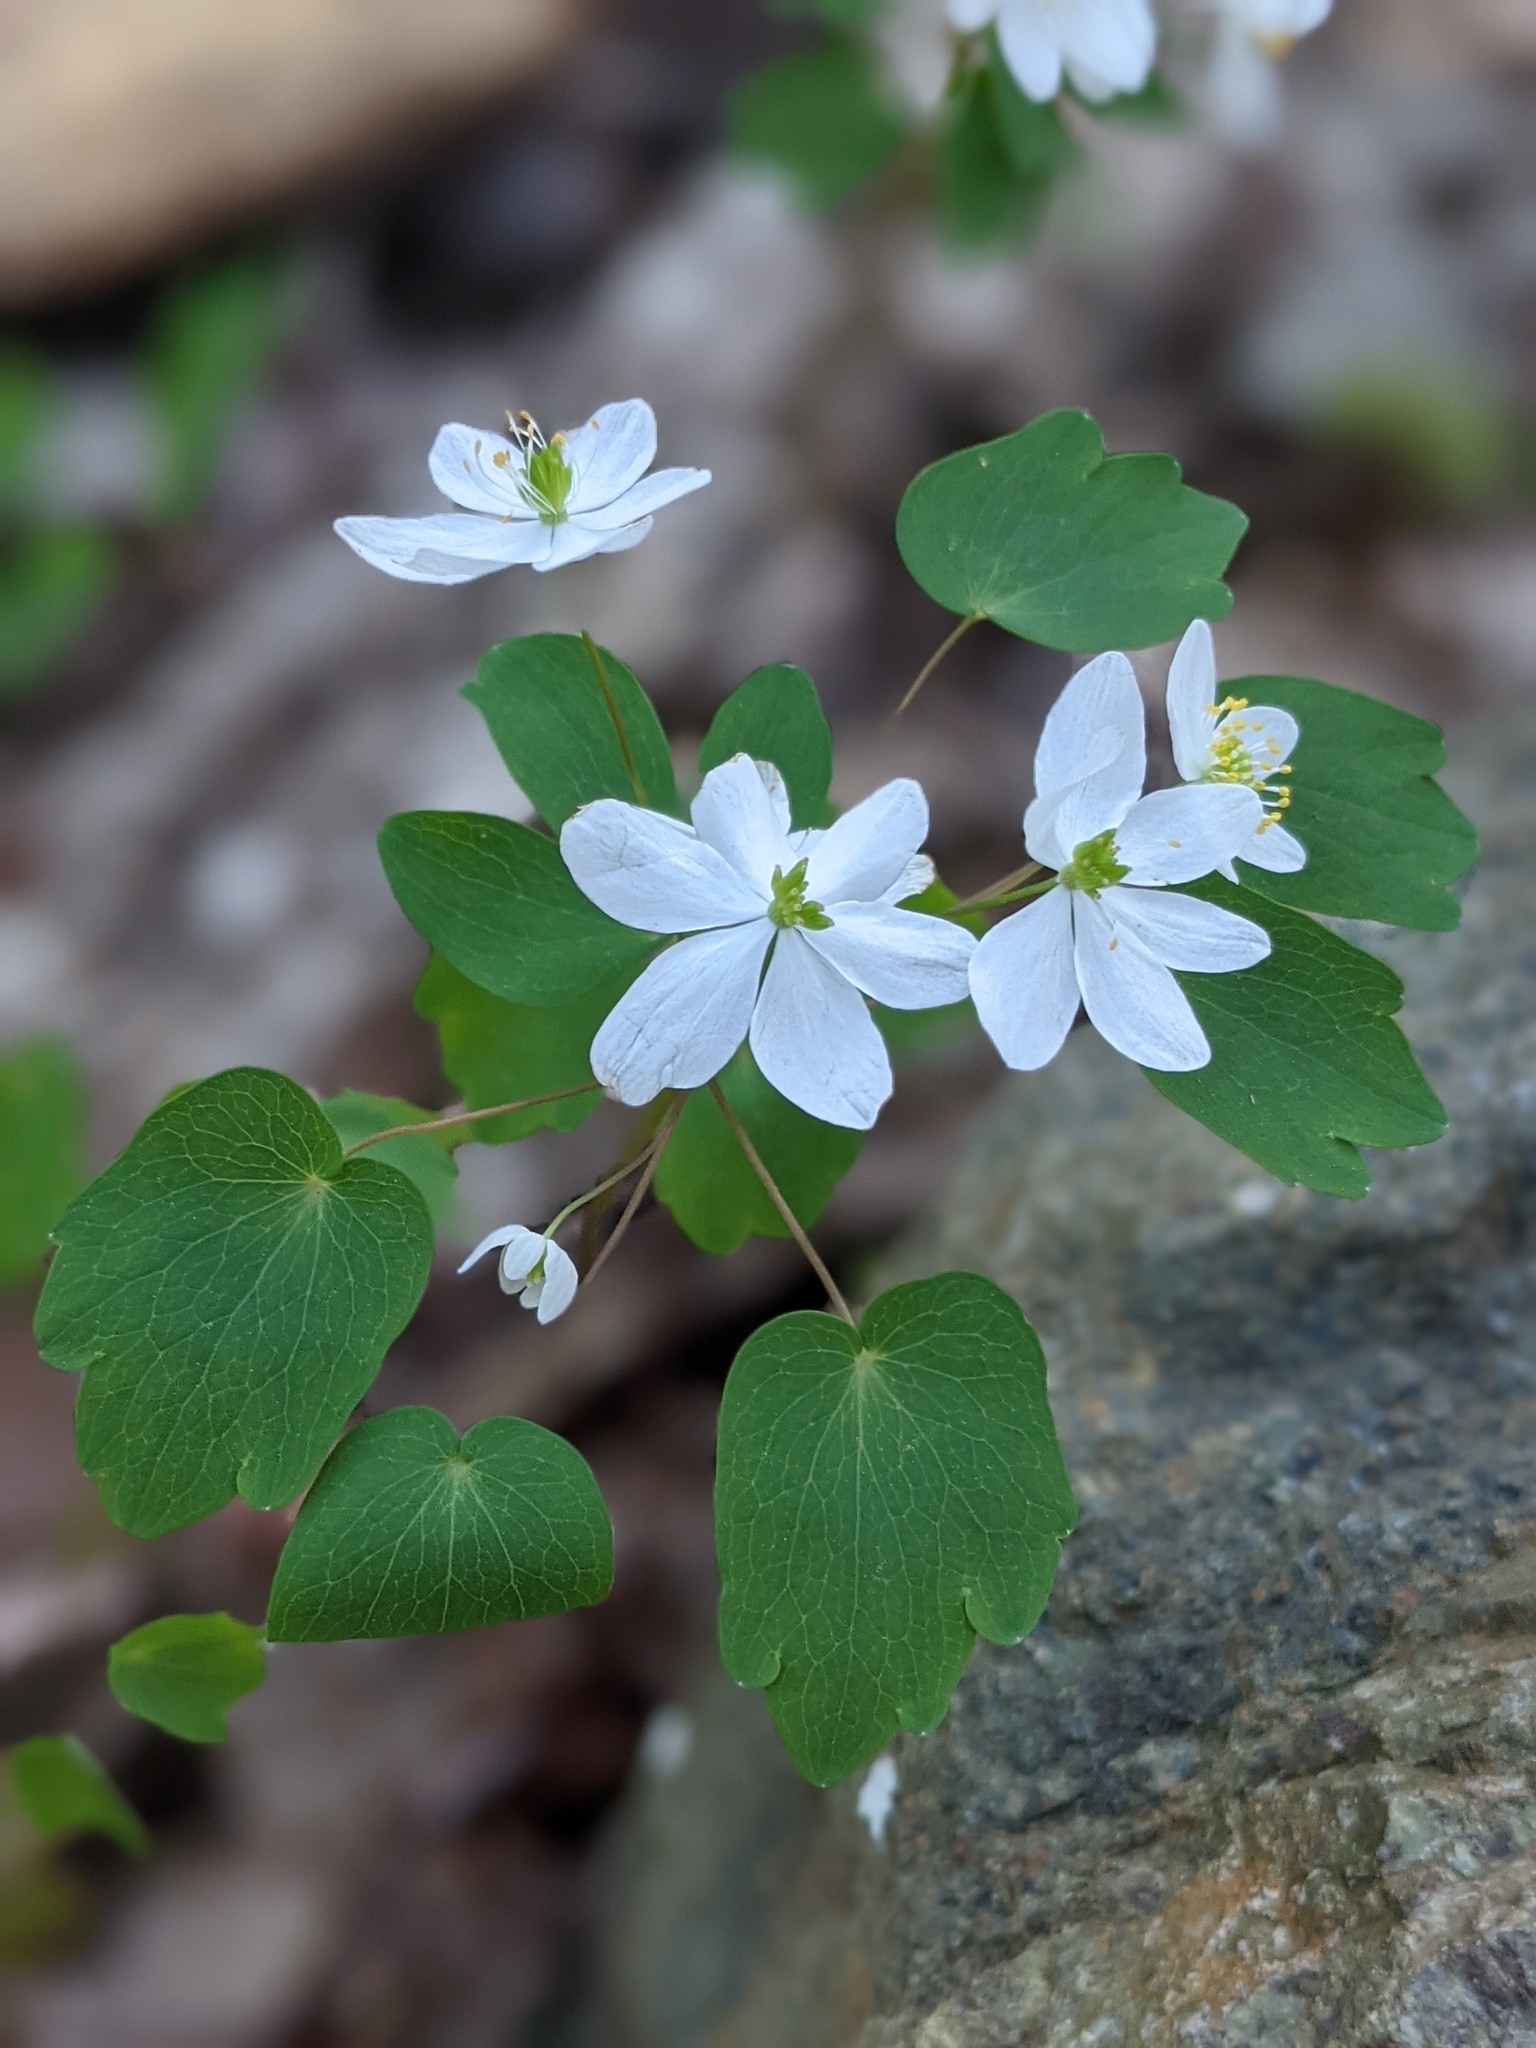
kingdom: Plantae
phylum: Tracheophyta
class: Magnoliopsida
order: Ranunculales
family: Ranunculaceae
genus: Thalictrum
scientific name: Thalictrum thalictroides
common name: Rue-anemone
